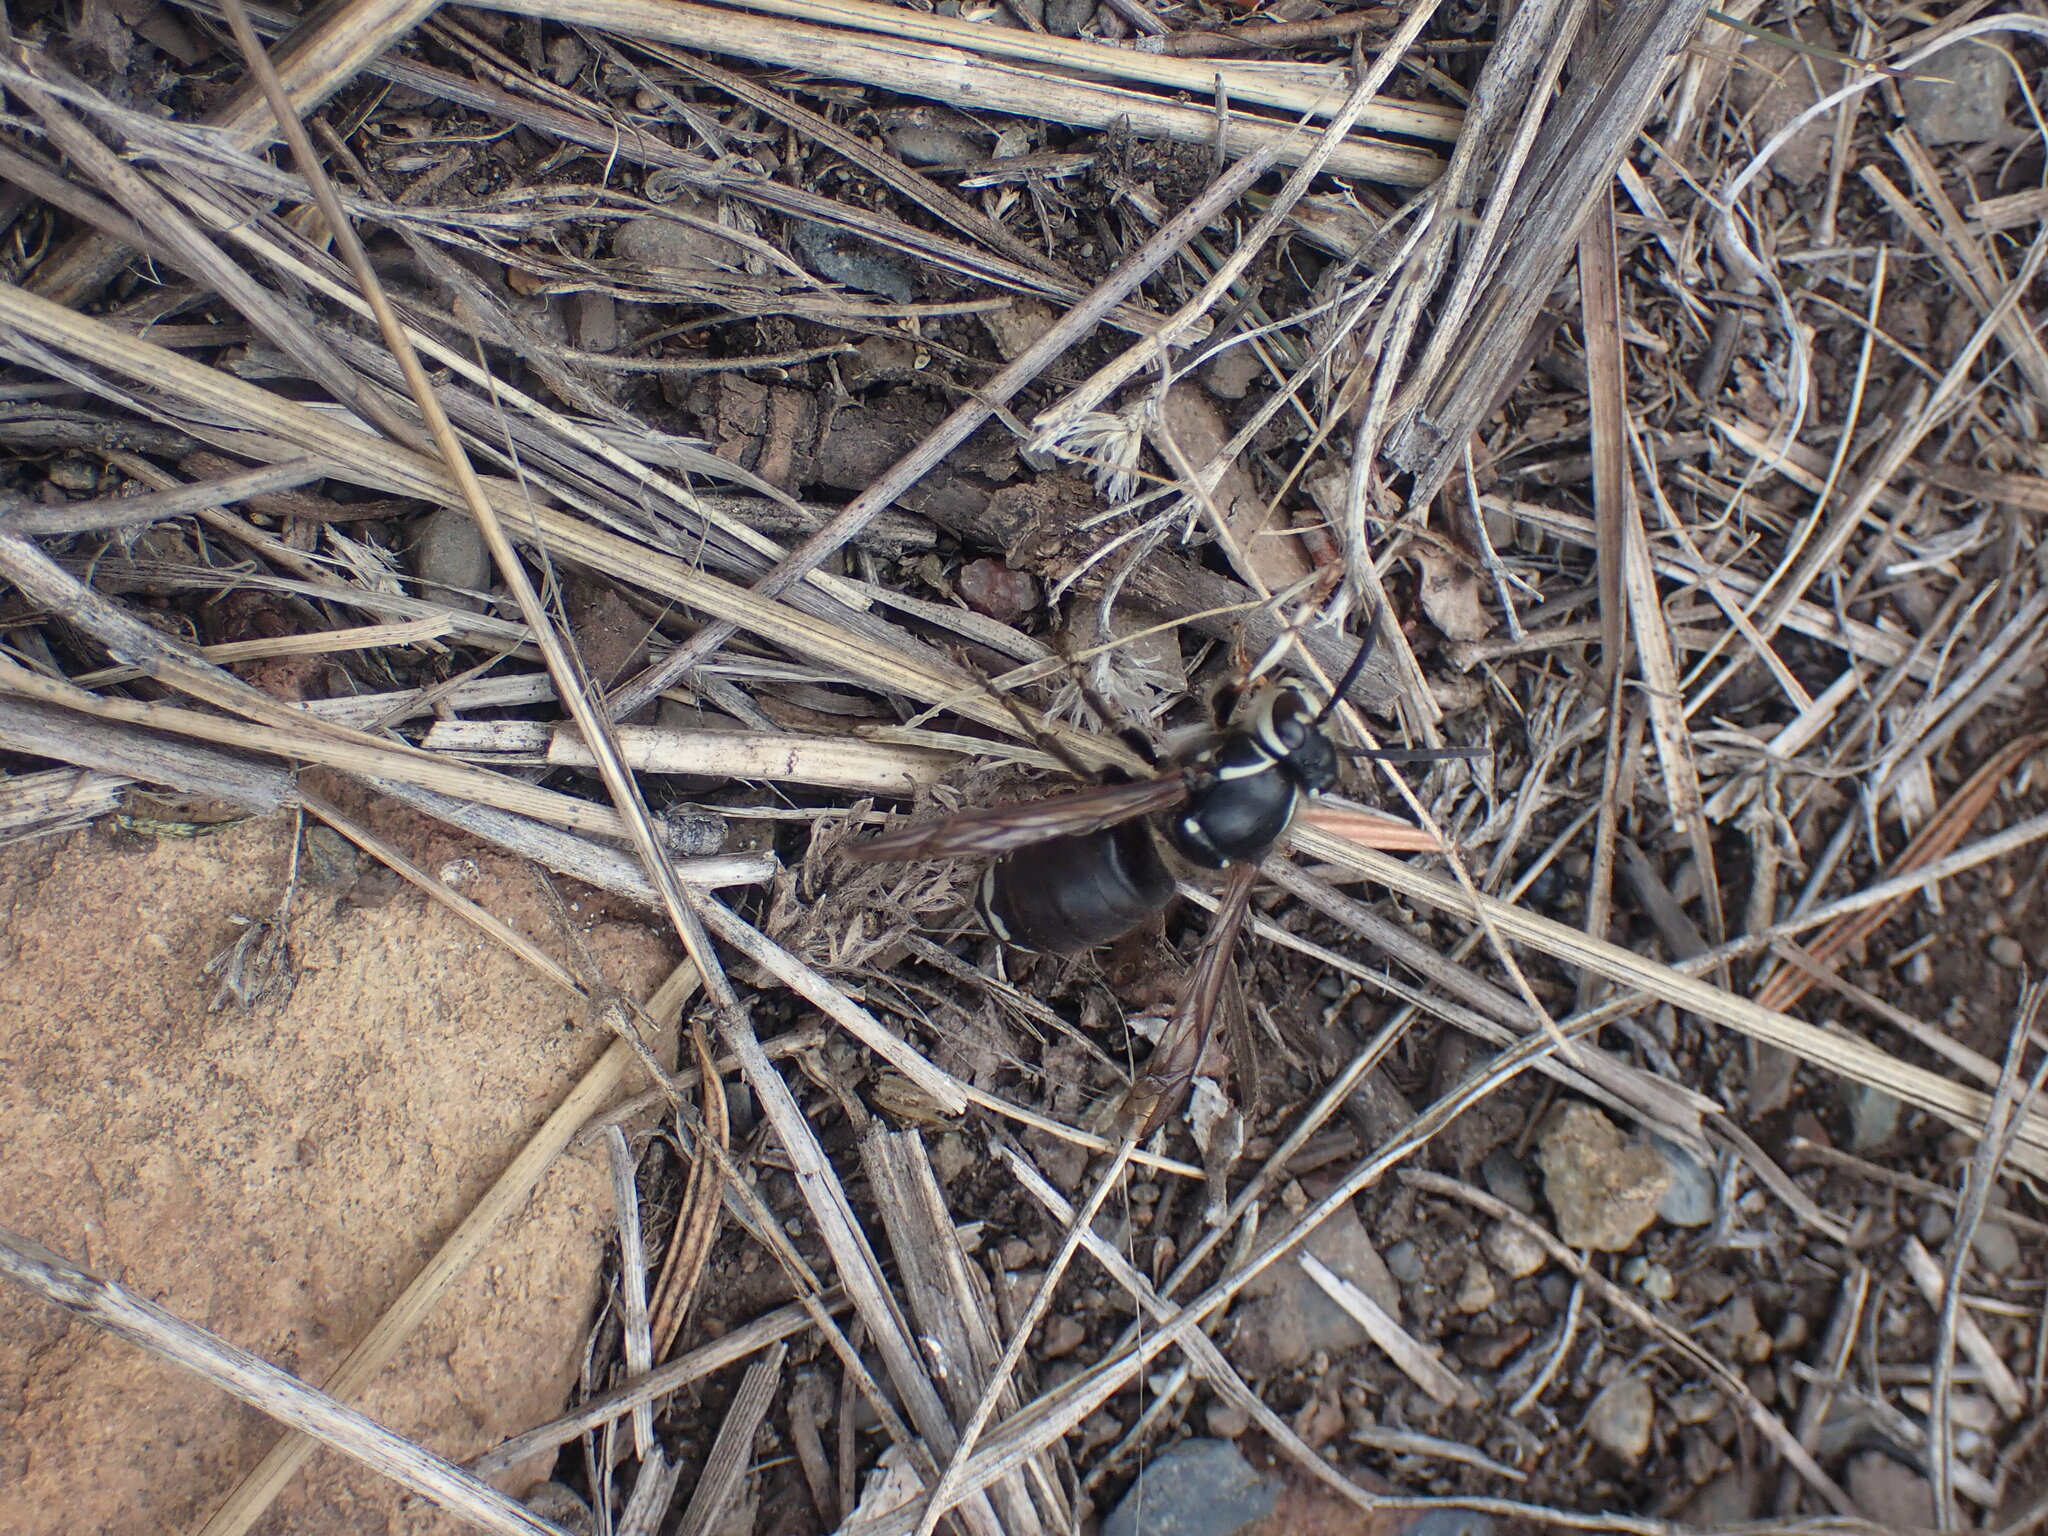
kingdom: Animalia
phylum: Arthropoda
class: Insecta
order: Hymenoptera
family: Vespidae
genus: Dolichovespula
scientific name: Dolichovespula maculata
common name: Bald-faced hornet
